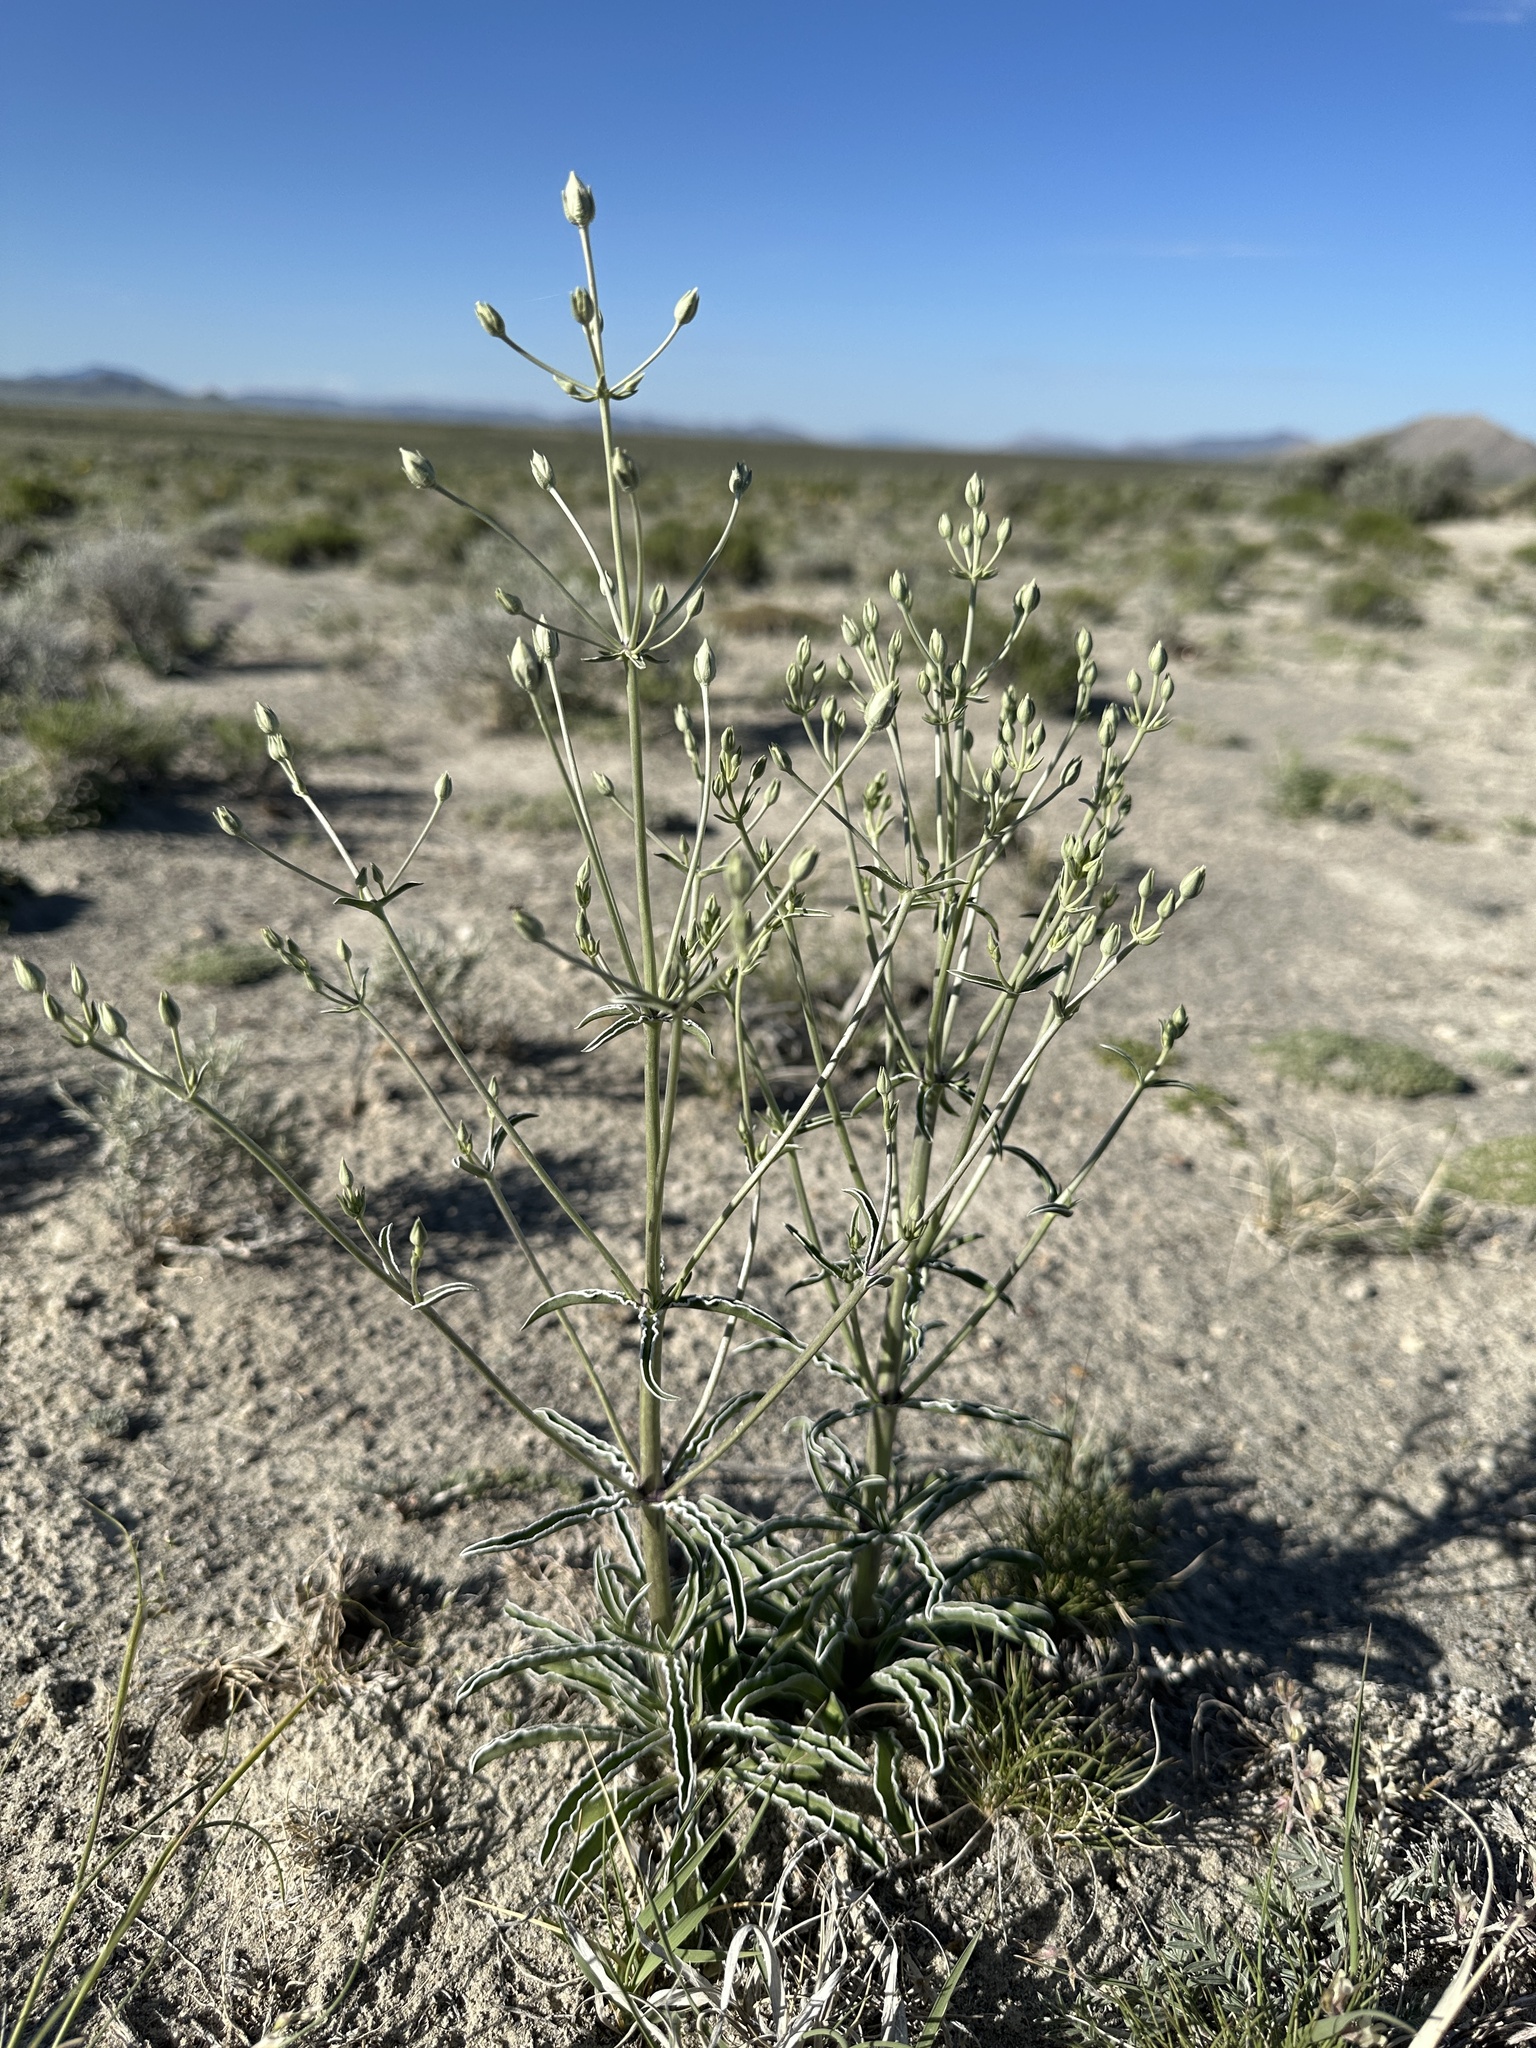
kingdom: Plantae
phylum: Tracheophyta
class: Magnoliopsida
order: Gentianales
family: Gentianaceae
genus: Frasera
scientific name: Frasera albomarginata
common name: Desert frasera
